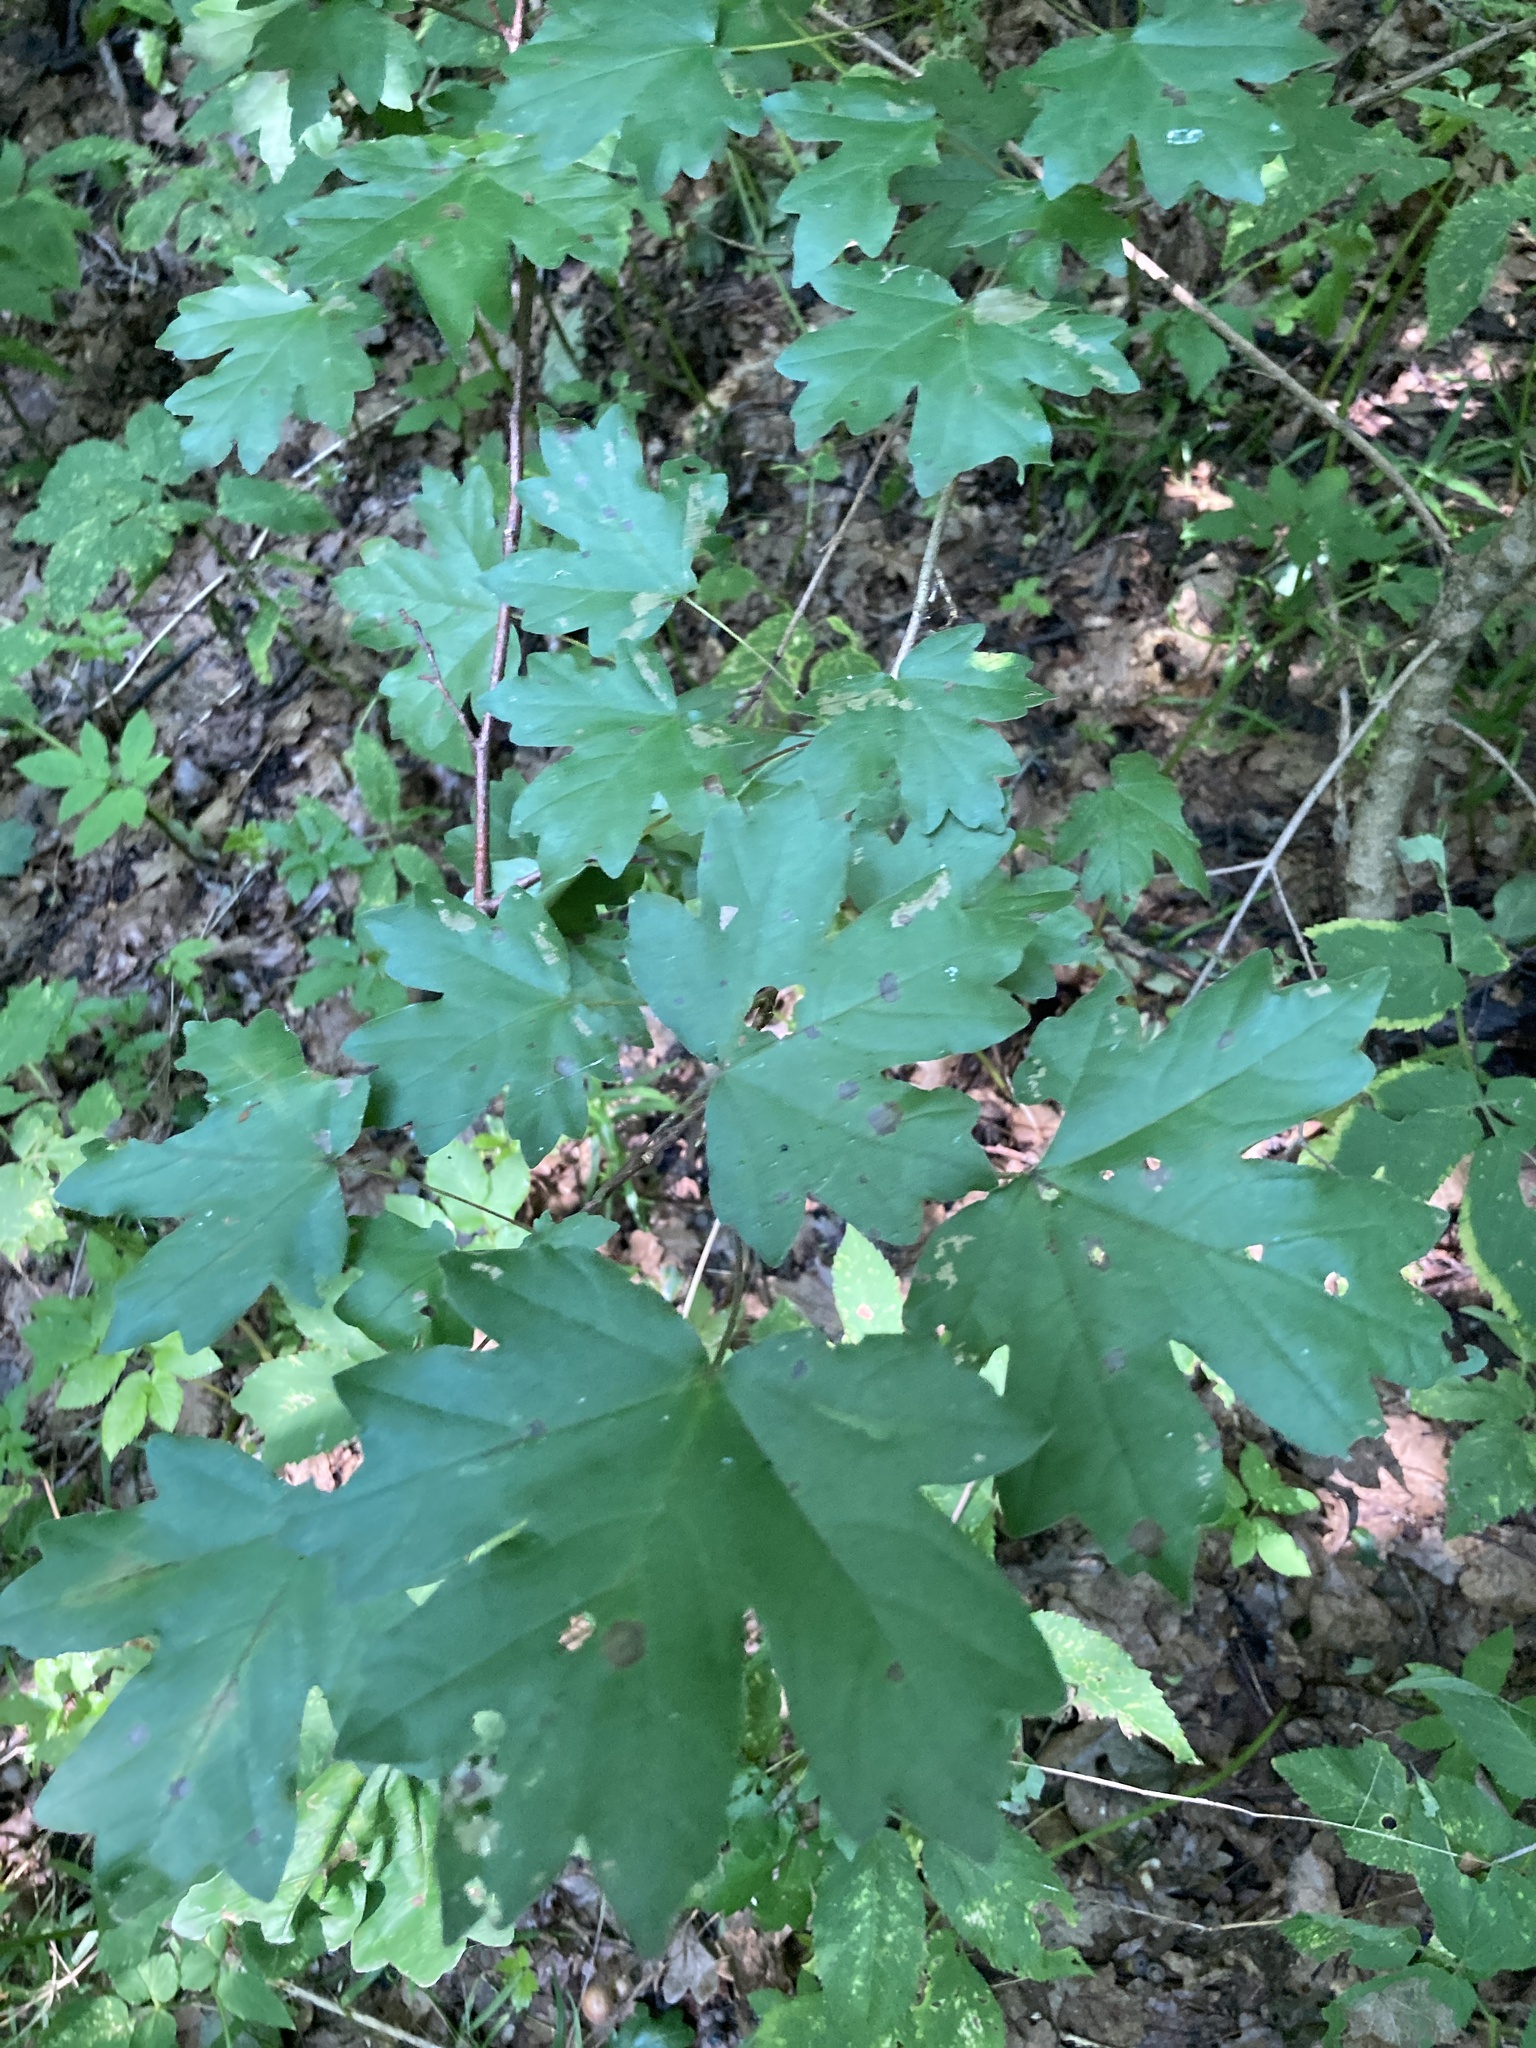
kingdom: Plantae
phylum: Tracheophyta
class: Magnoliopsida
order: Sapindales
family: Sapindaceae
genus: Acer
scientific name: Acer campestre
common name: Field maple
